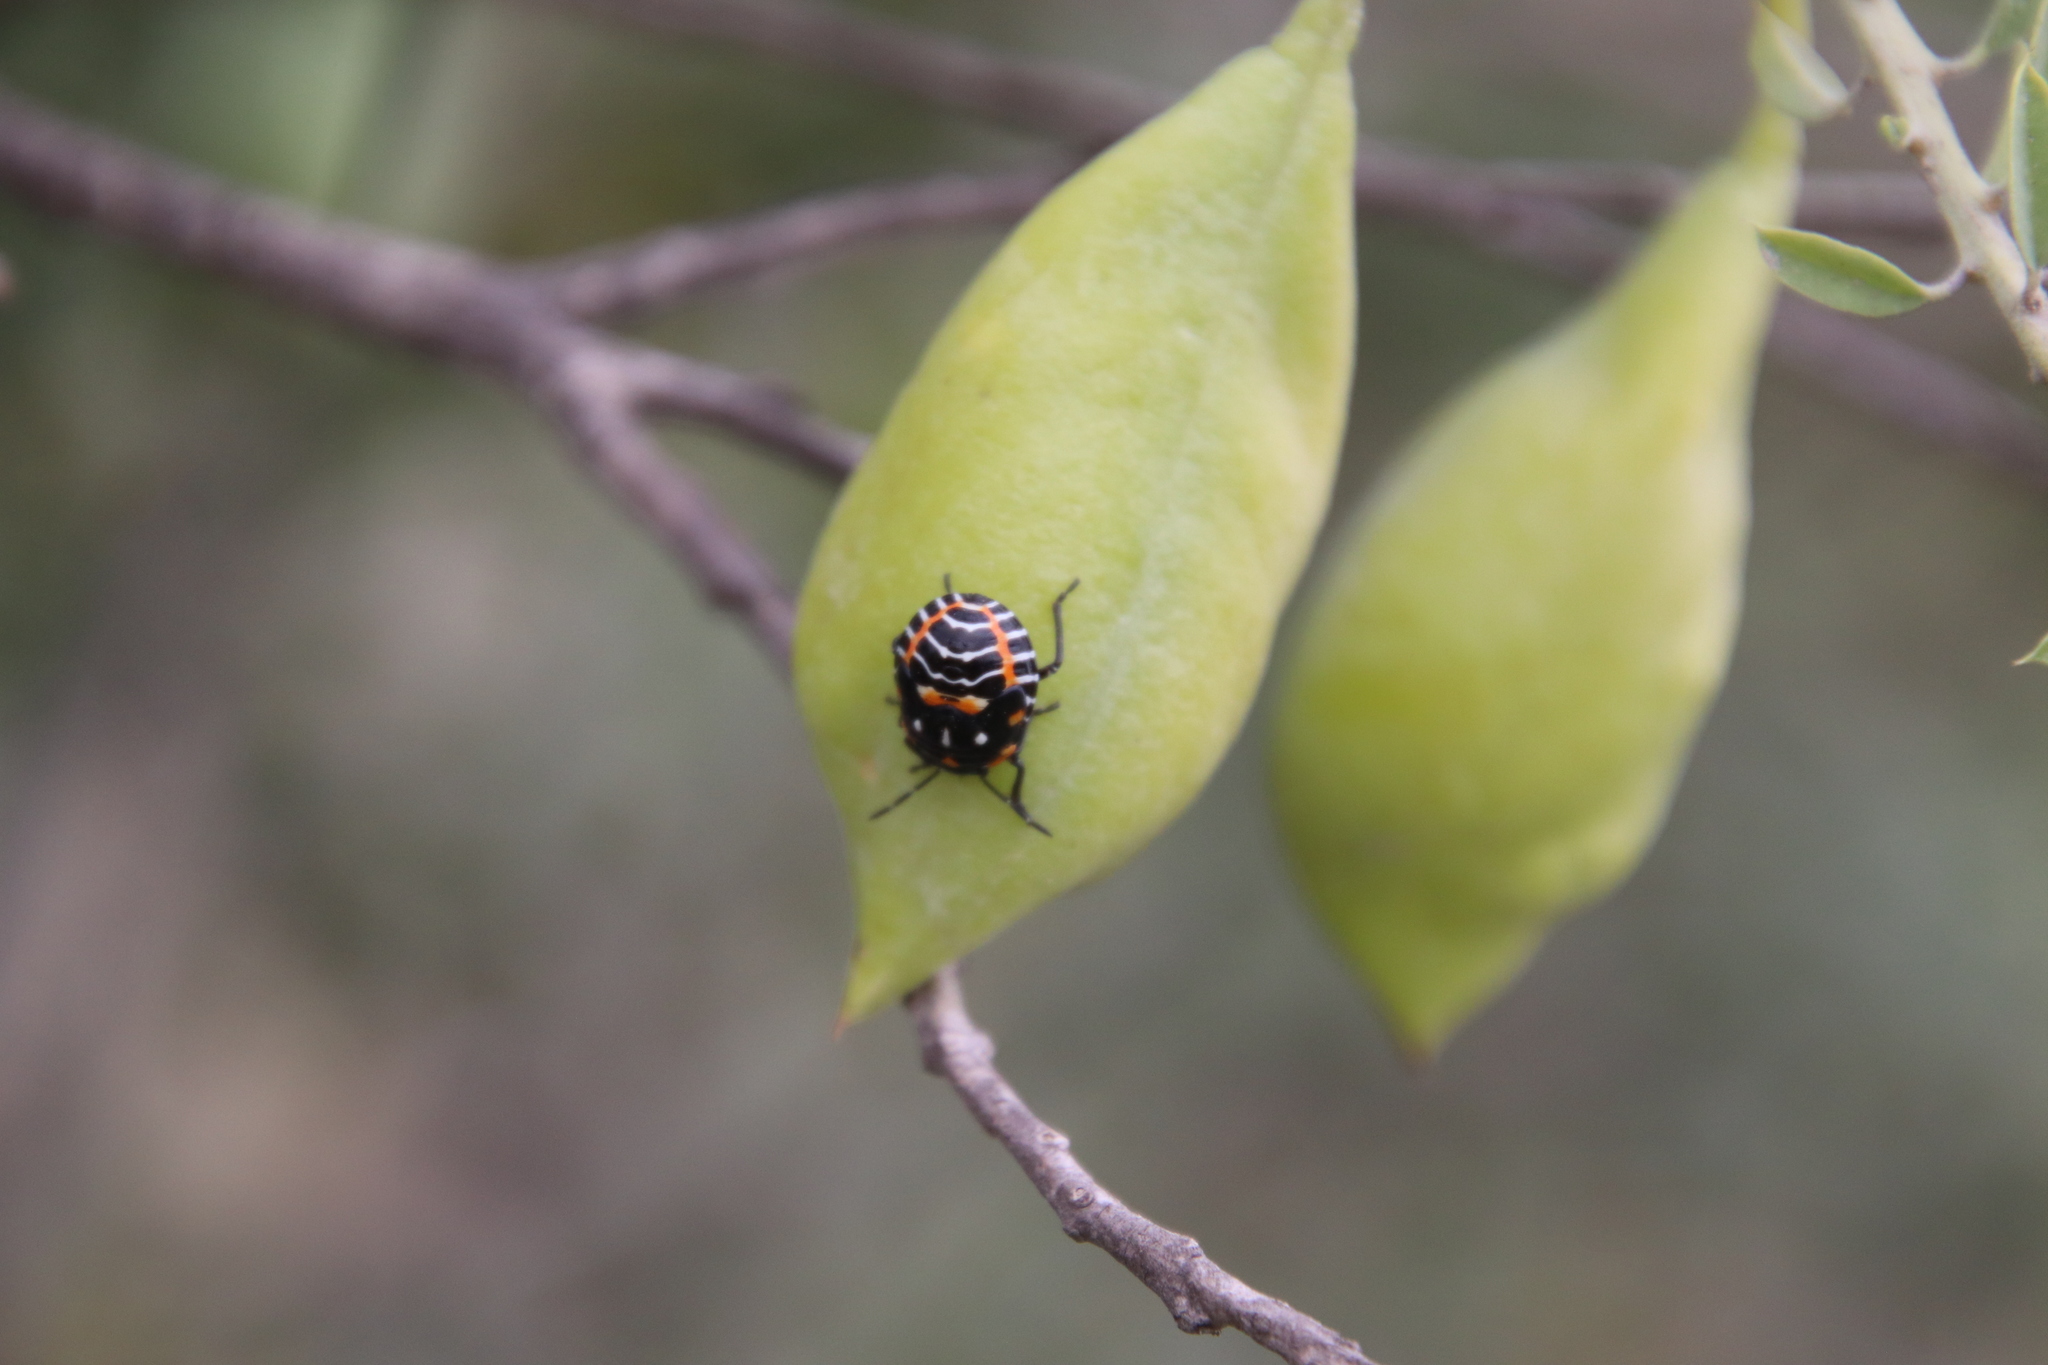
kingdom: Animalia
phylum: Arthropoda
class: Insecta
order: Hemiptera
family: Pentatomidae
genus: Murgantia
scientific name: Murgantia histrionica
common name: Harlequin bug
